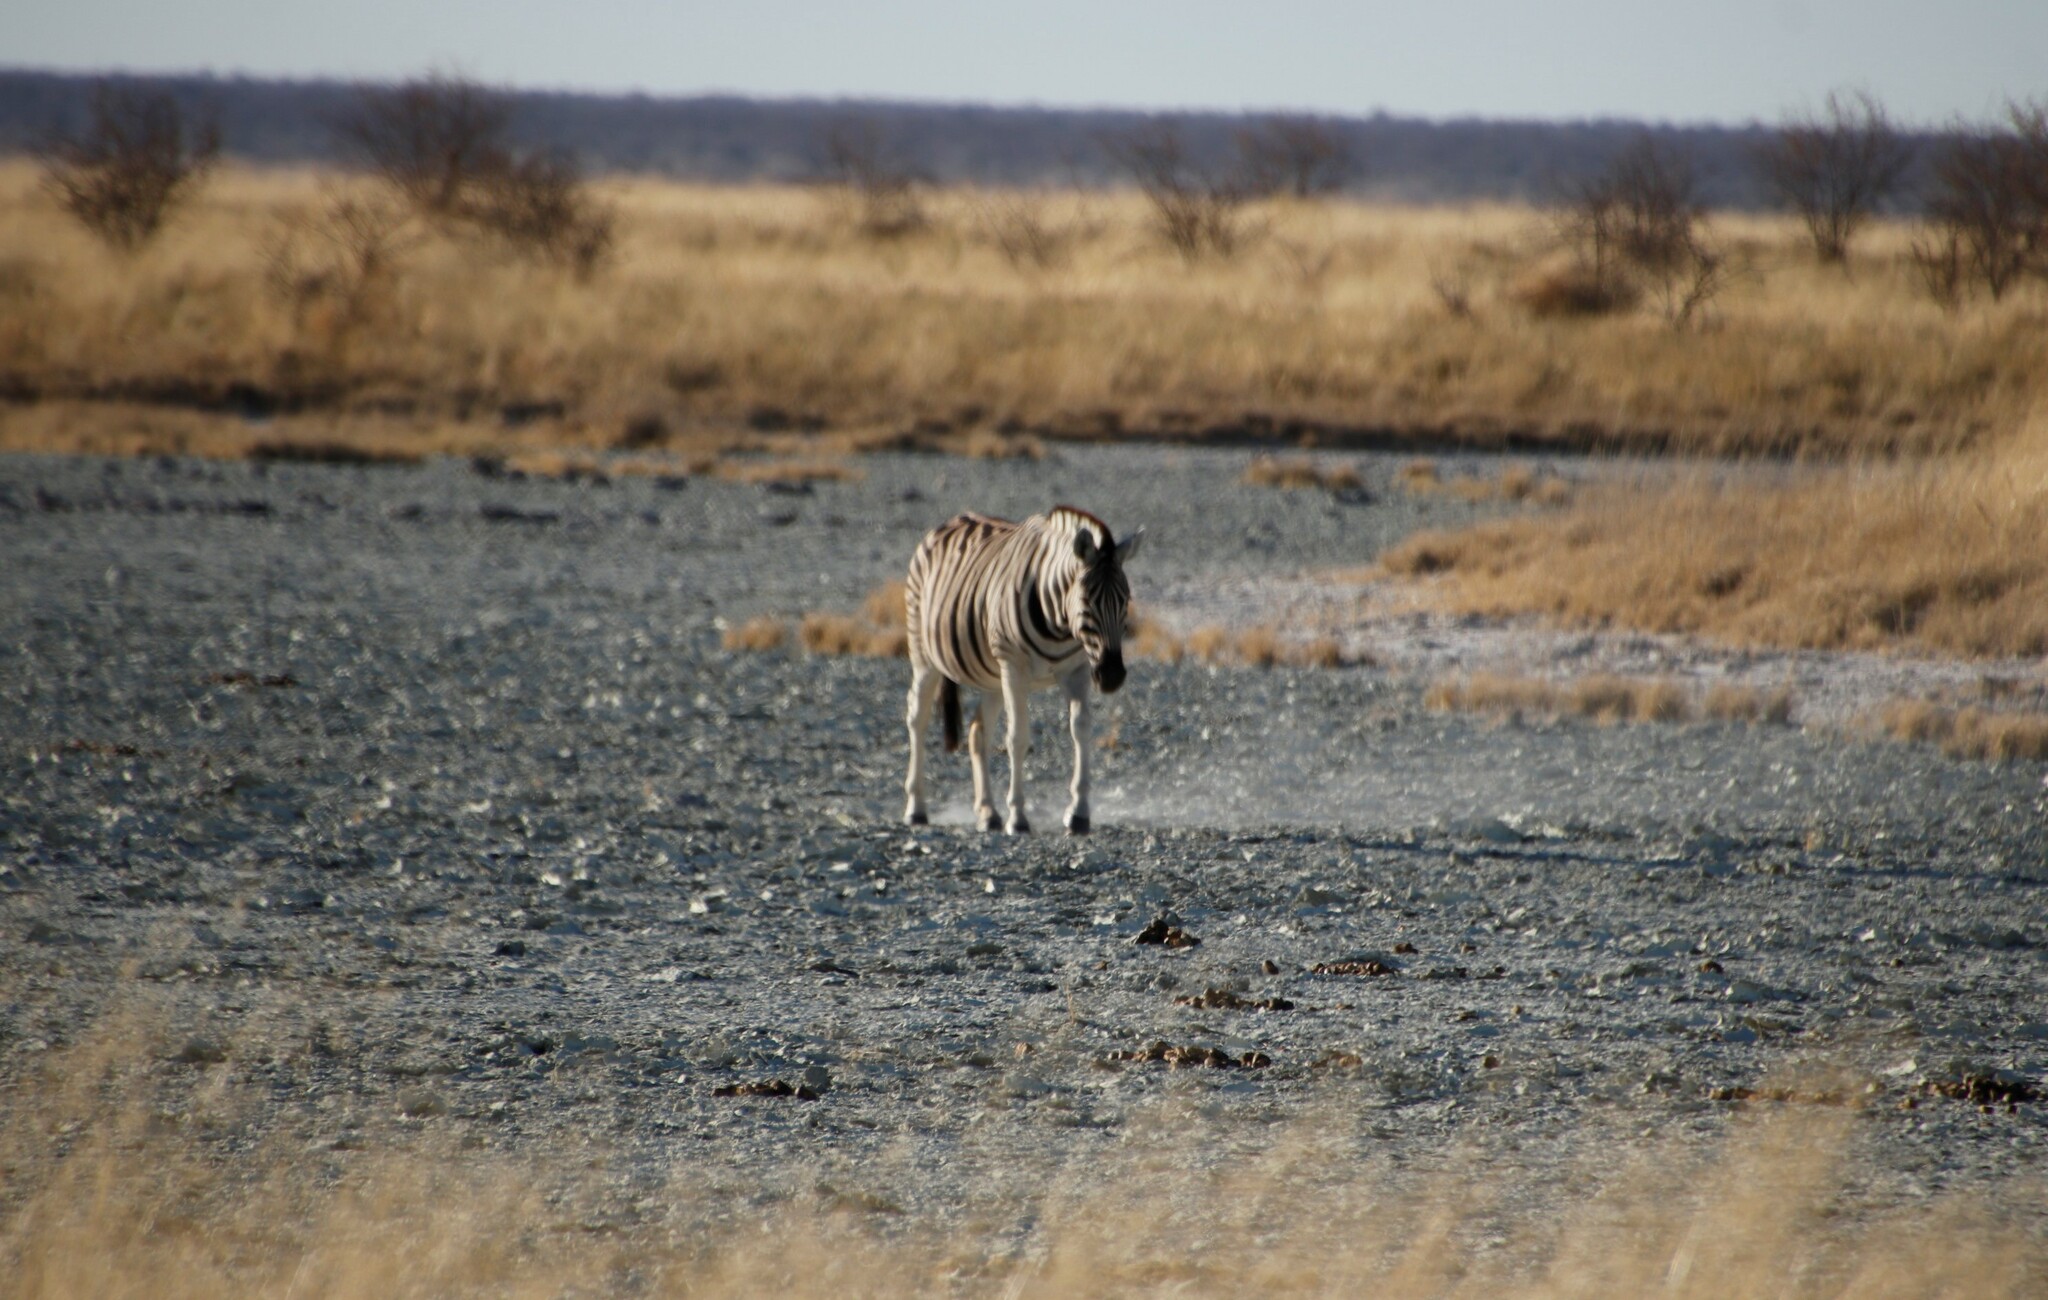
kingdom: Animalia
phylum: Chordata
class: Mammalia
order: Perissodactyla
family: Equidae
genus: Equus
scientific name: Equus quagga
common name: Plains zebra
